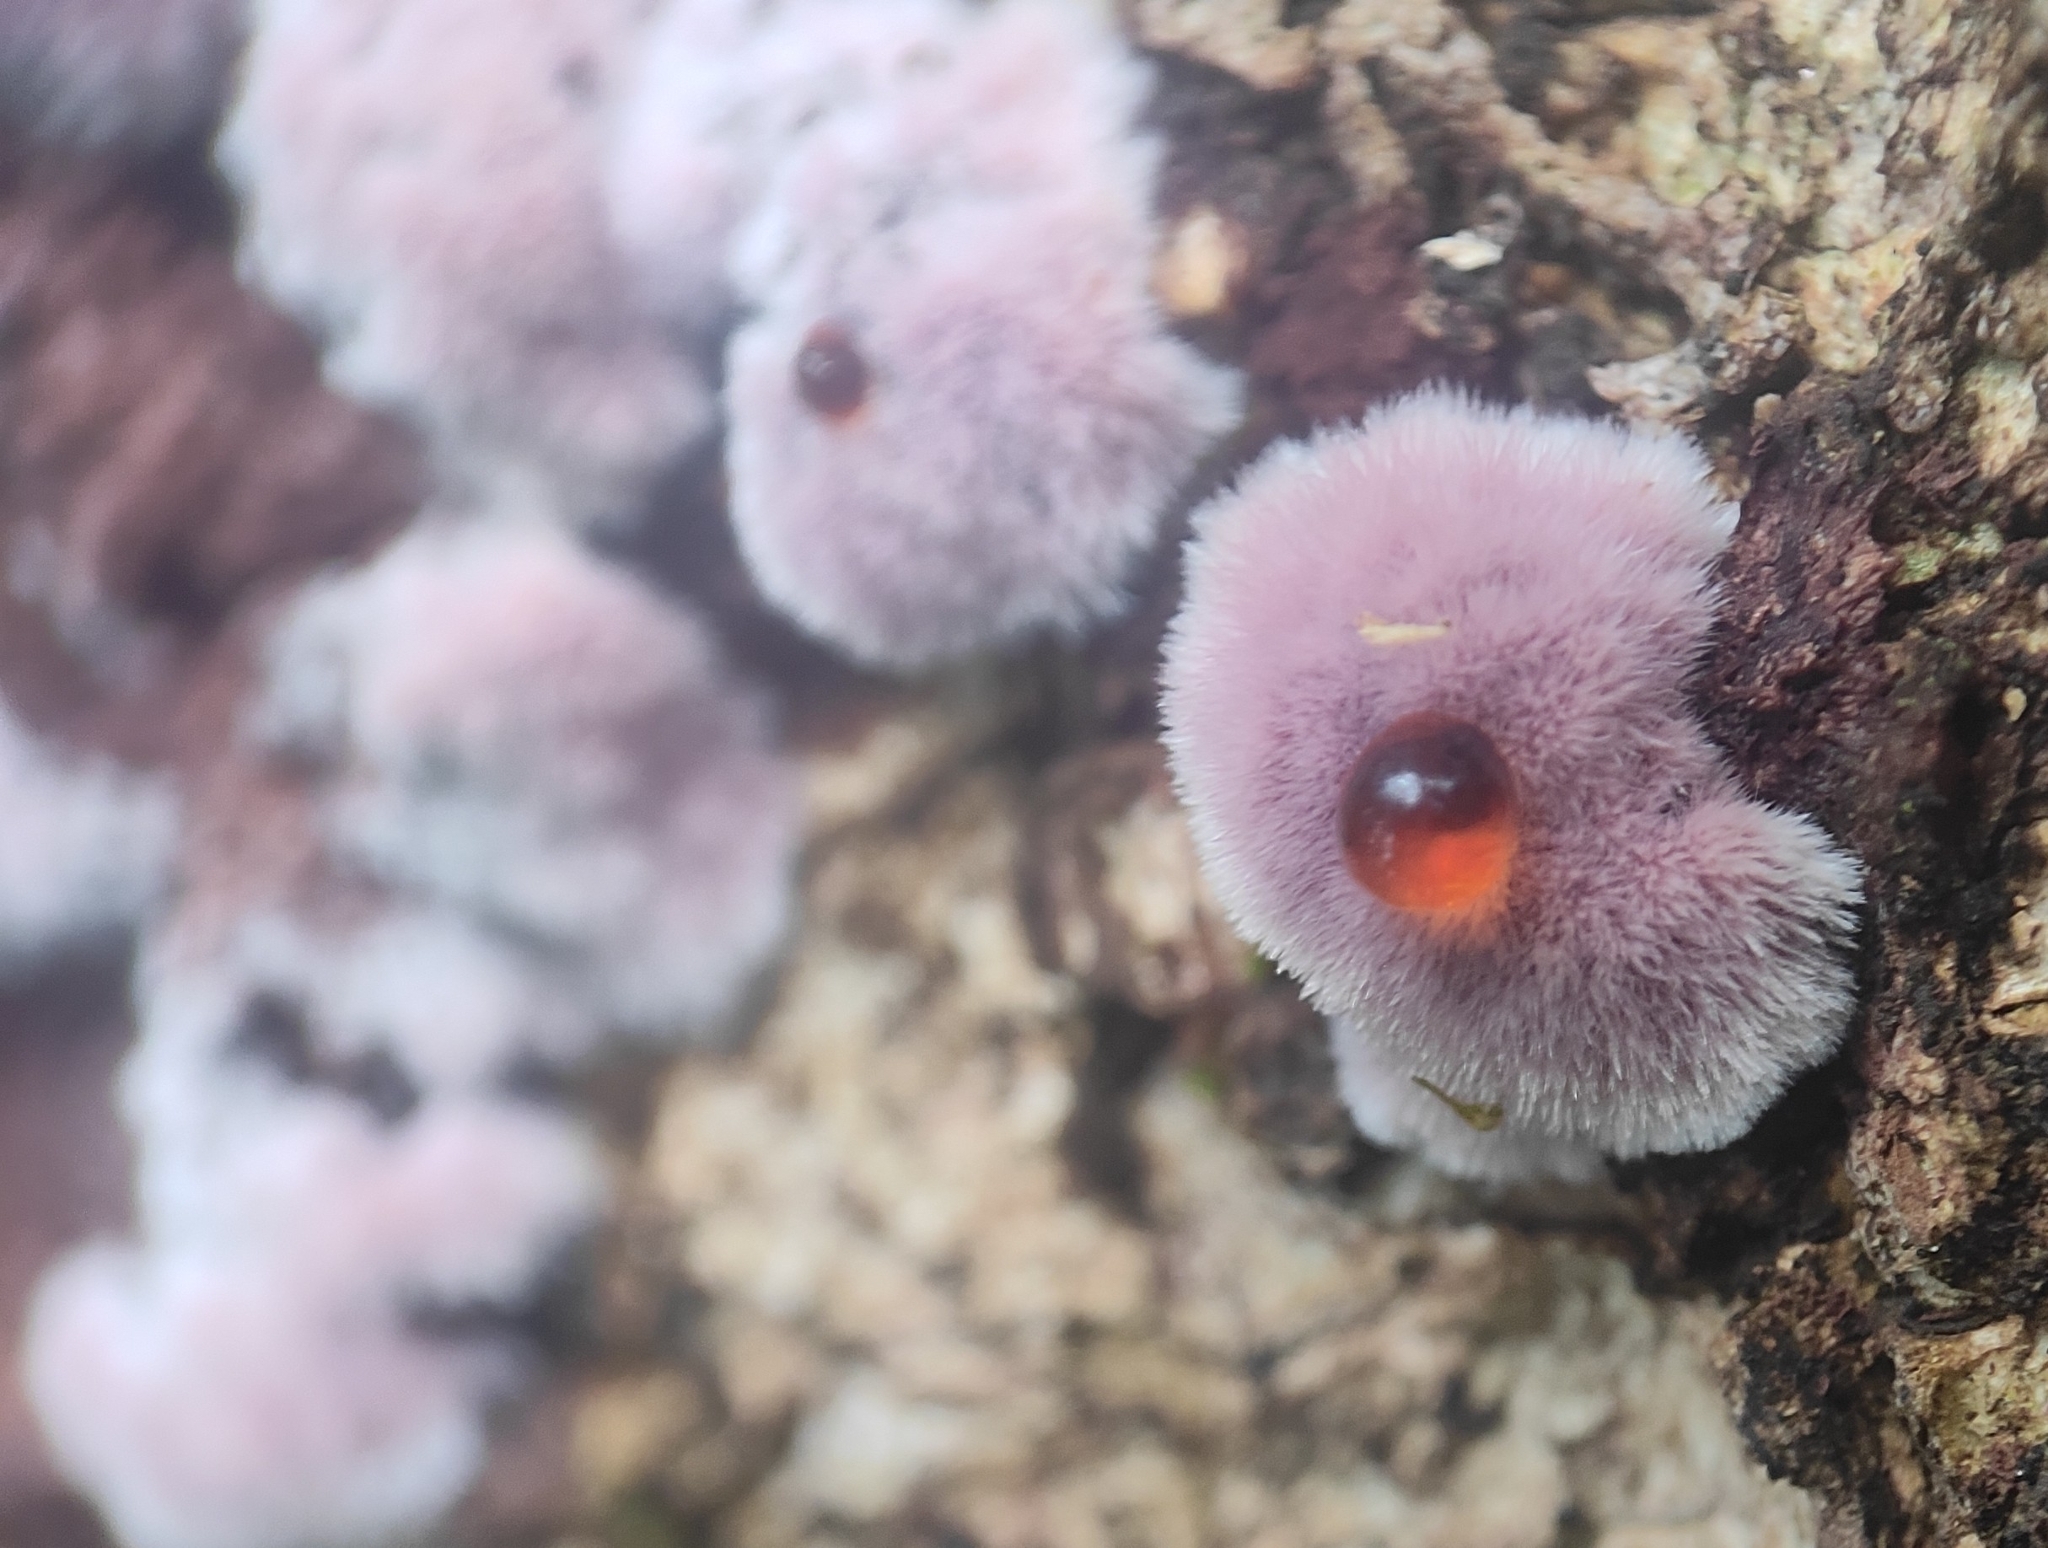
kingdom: Fungi
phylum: Basidiomycota
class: Agaricomycetes
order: Corticiales
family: Punctulariaceae
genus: Punctularia
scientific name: Punctularia atropurpurascens
